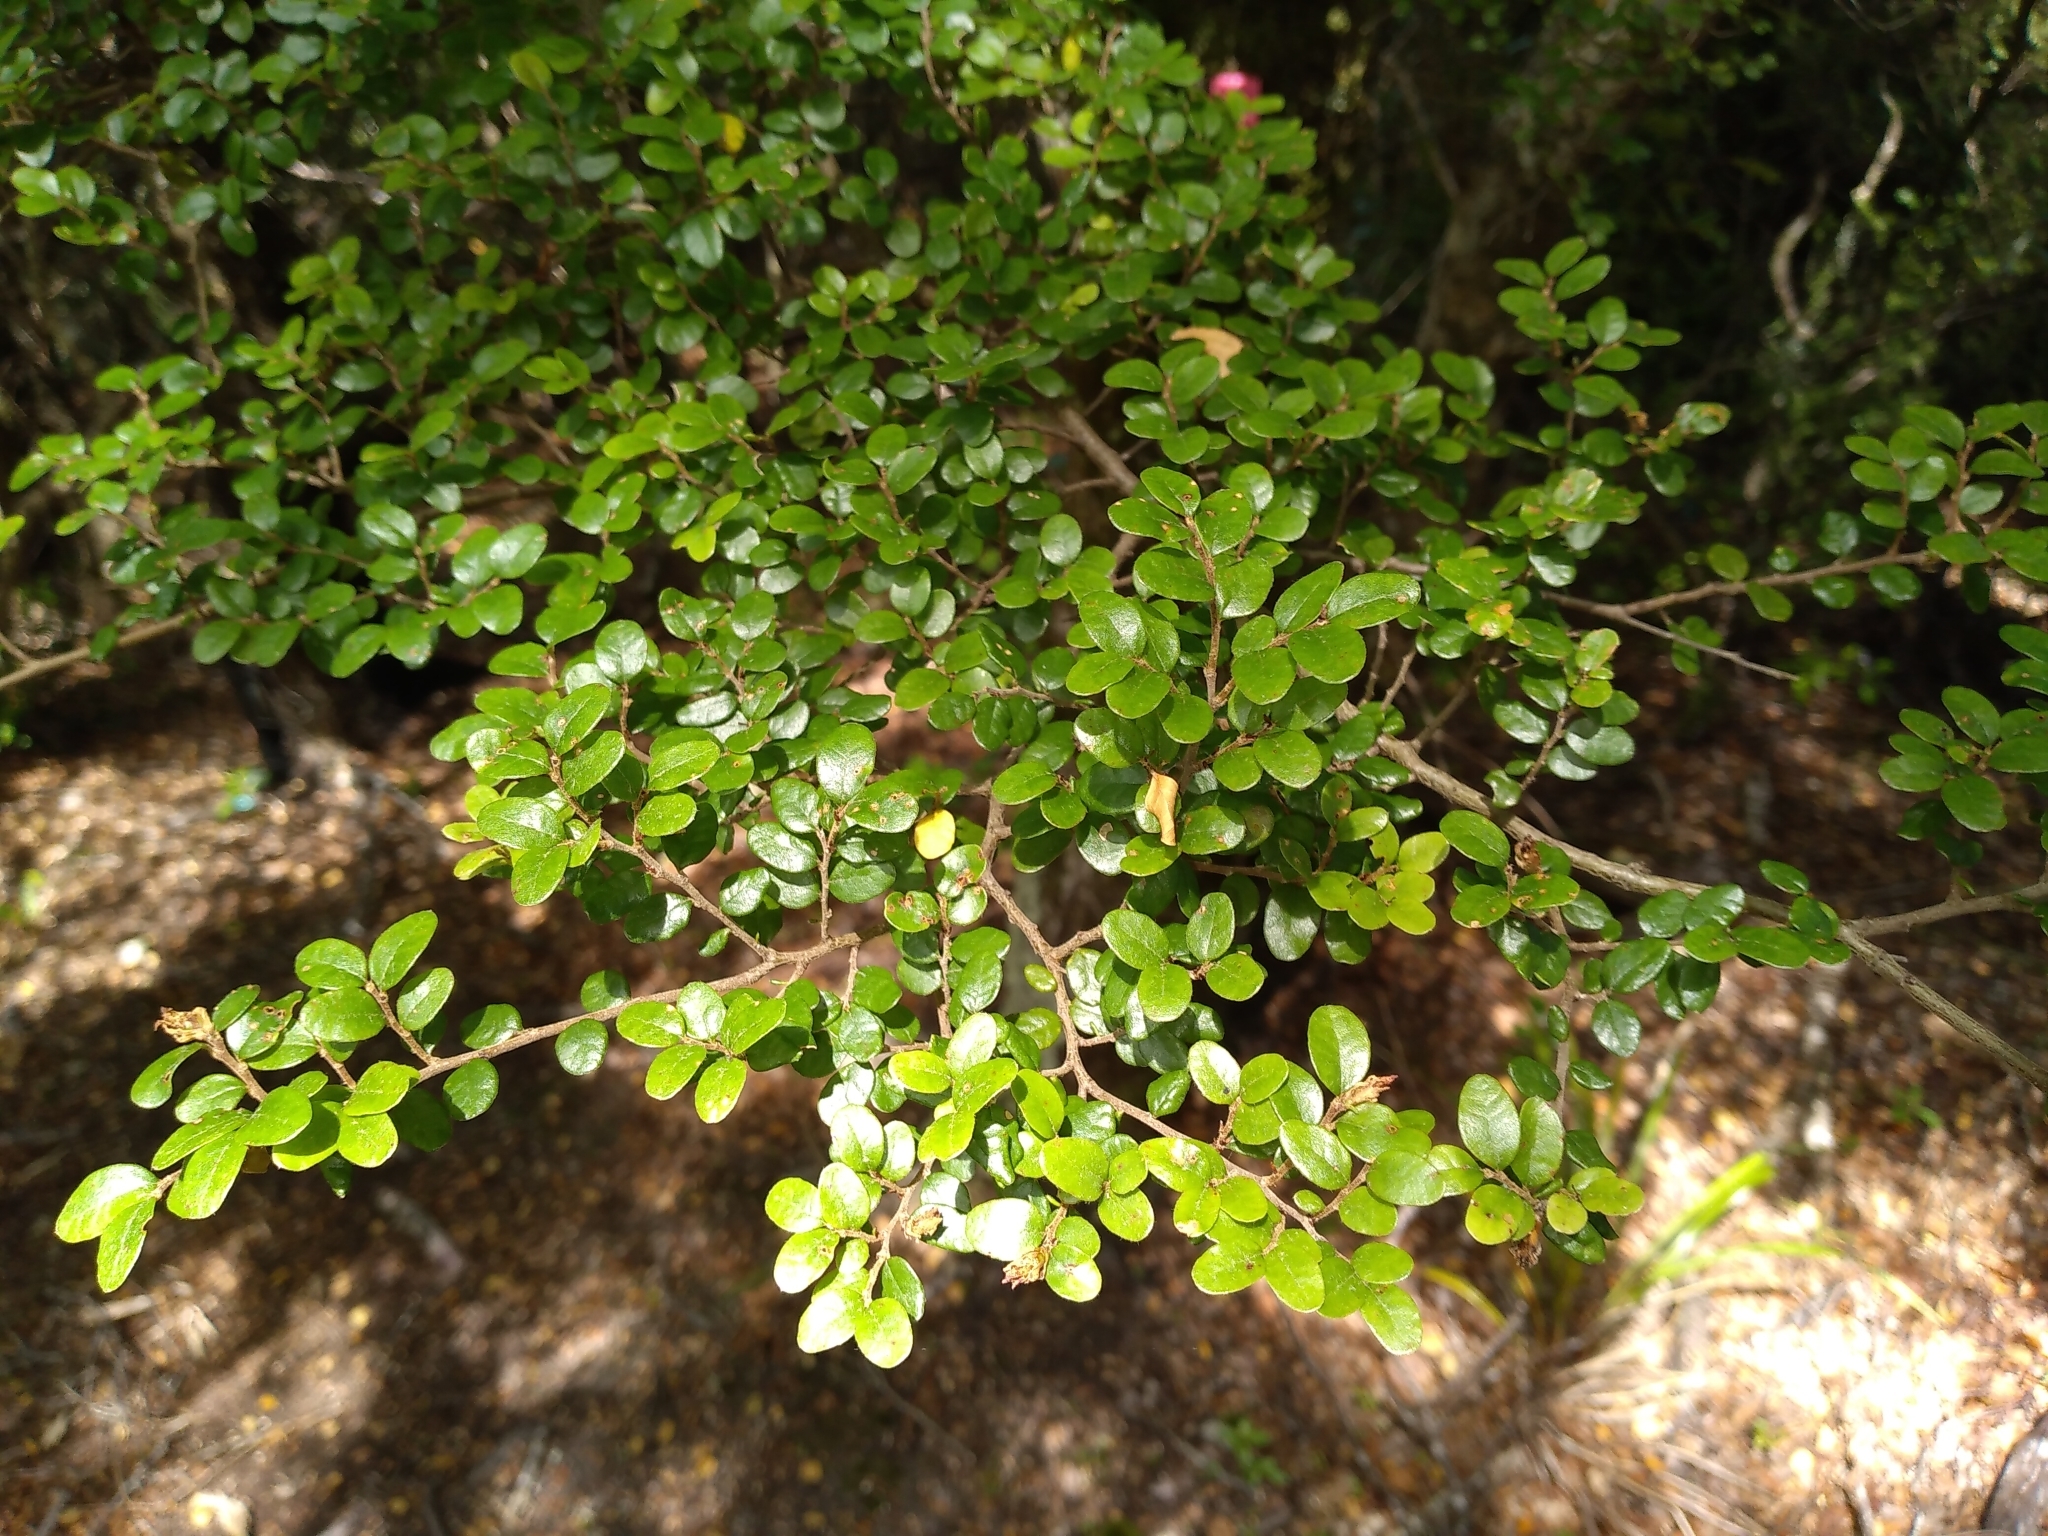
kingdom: Plantae
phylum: Tracheophyta
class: Magnoliopsida
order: Fagales
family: Nothofagaceae
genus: Nothofagus
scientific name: Nothofagus solandri
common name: Black beech
